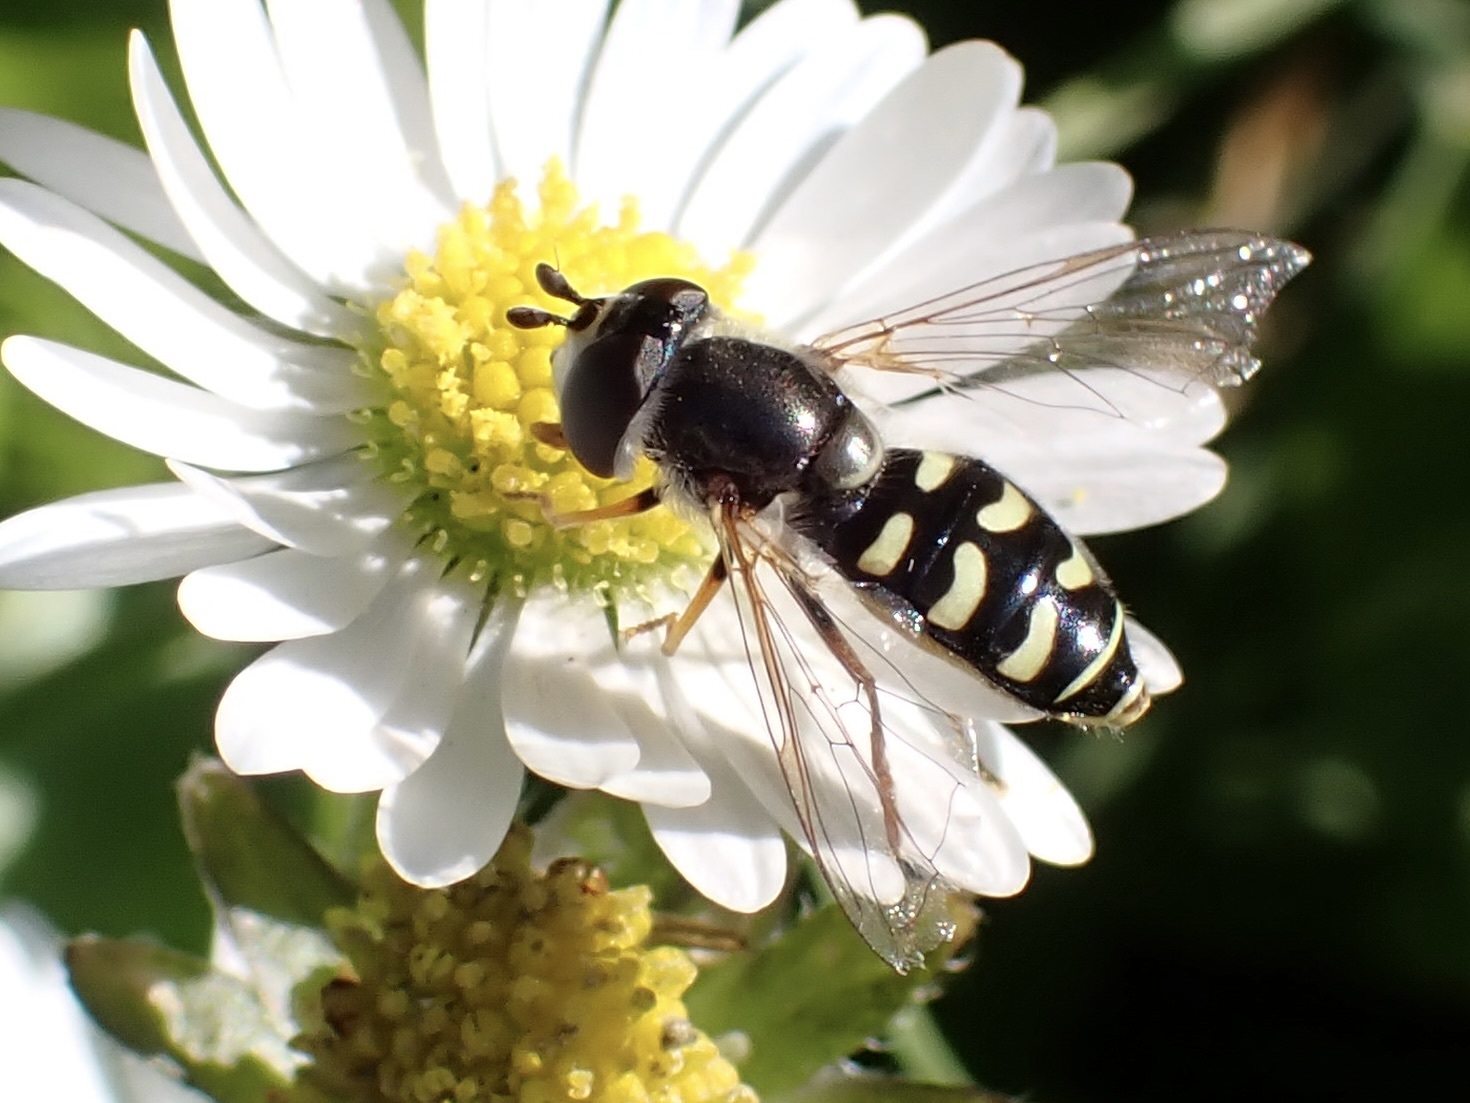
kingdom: Animalia
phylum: Arthropoda
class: Insecta
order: Diptera
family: Syrphidae
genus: Eupeodes
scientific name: Eupeodes volucris
